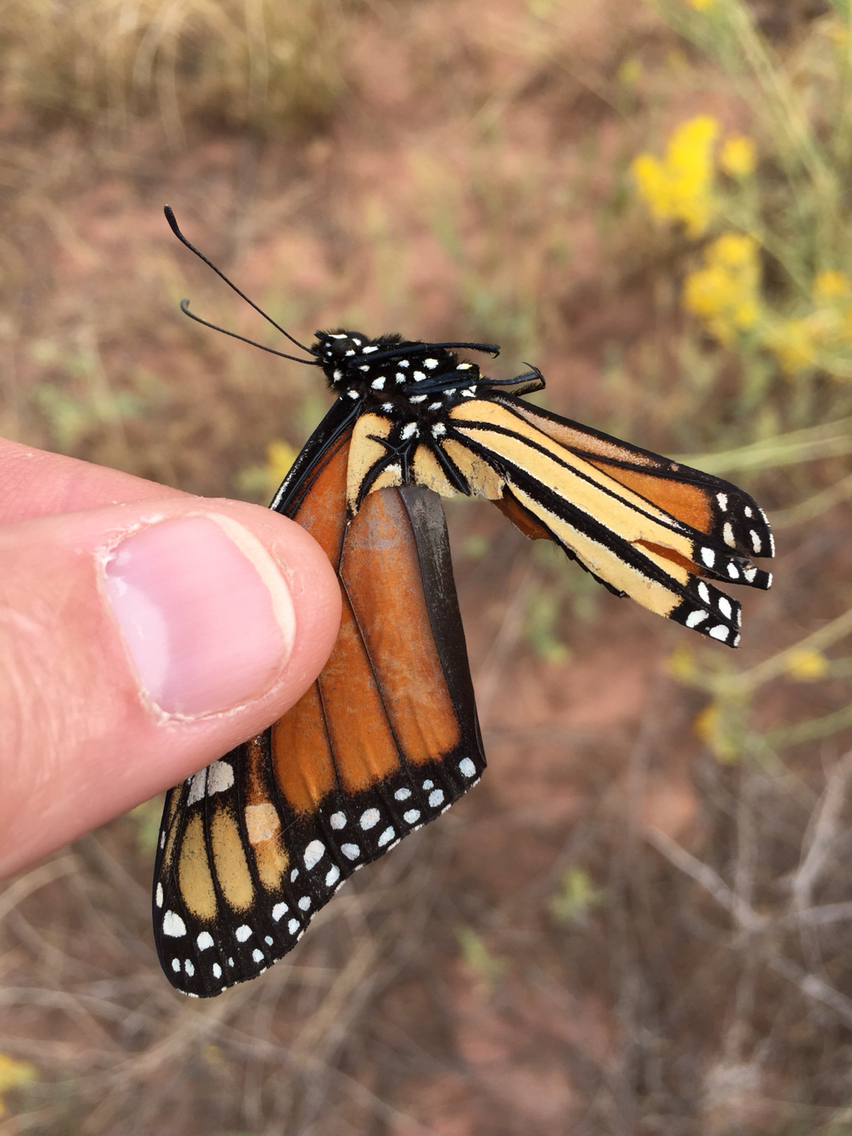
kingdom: Animalia
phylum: Arthropoda
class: Insecta
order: Lepidoptera
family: Nymphalidae
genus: Danaus
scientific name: Danaus plexippus
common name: Monarch
